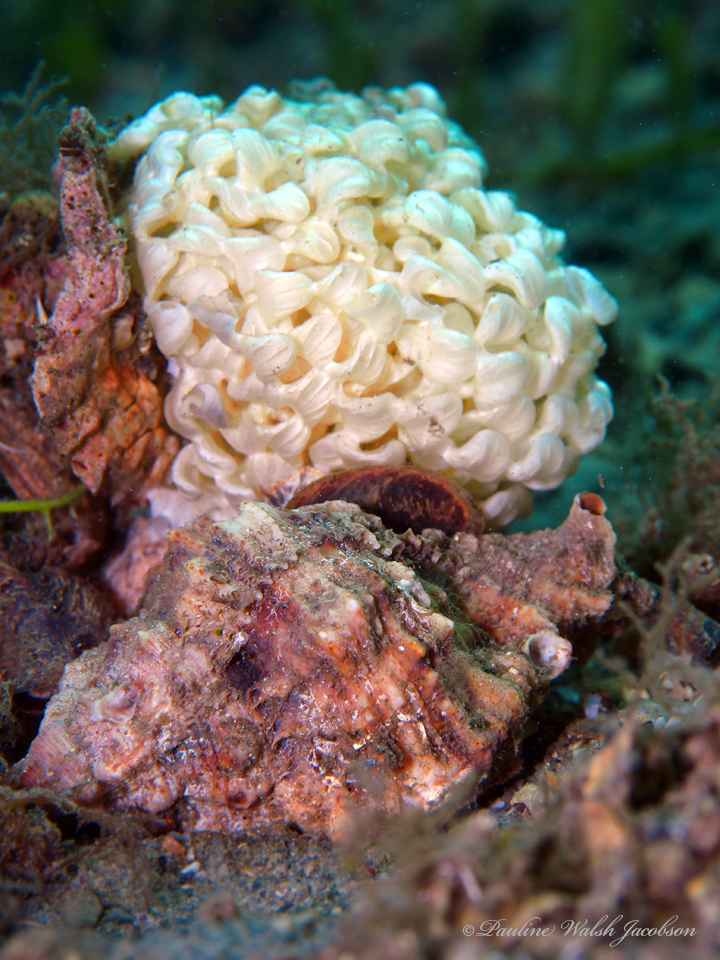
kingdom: Animalia
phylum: Mollusca
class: Gastropoda
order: Neogastropoda
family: Muricidae
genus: Phyllonotus
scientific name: Phyllonotus pomum
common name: Apple murex
